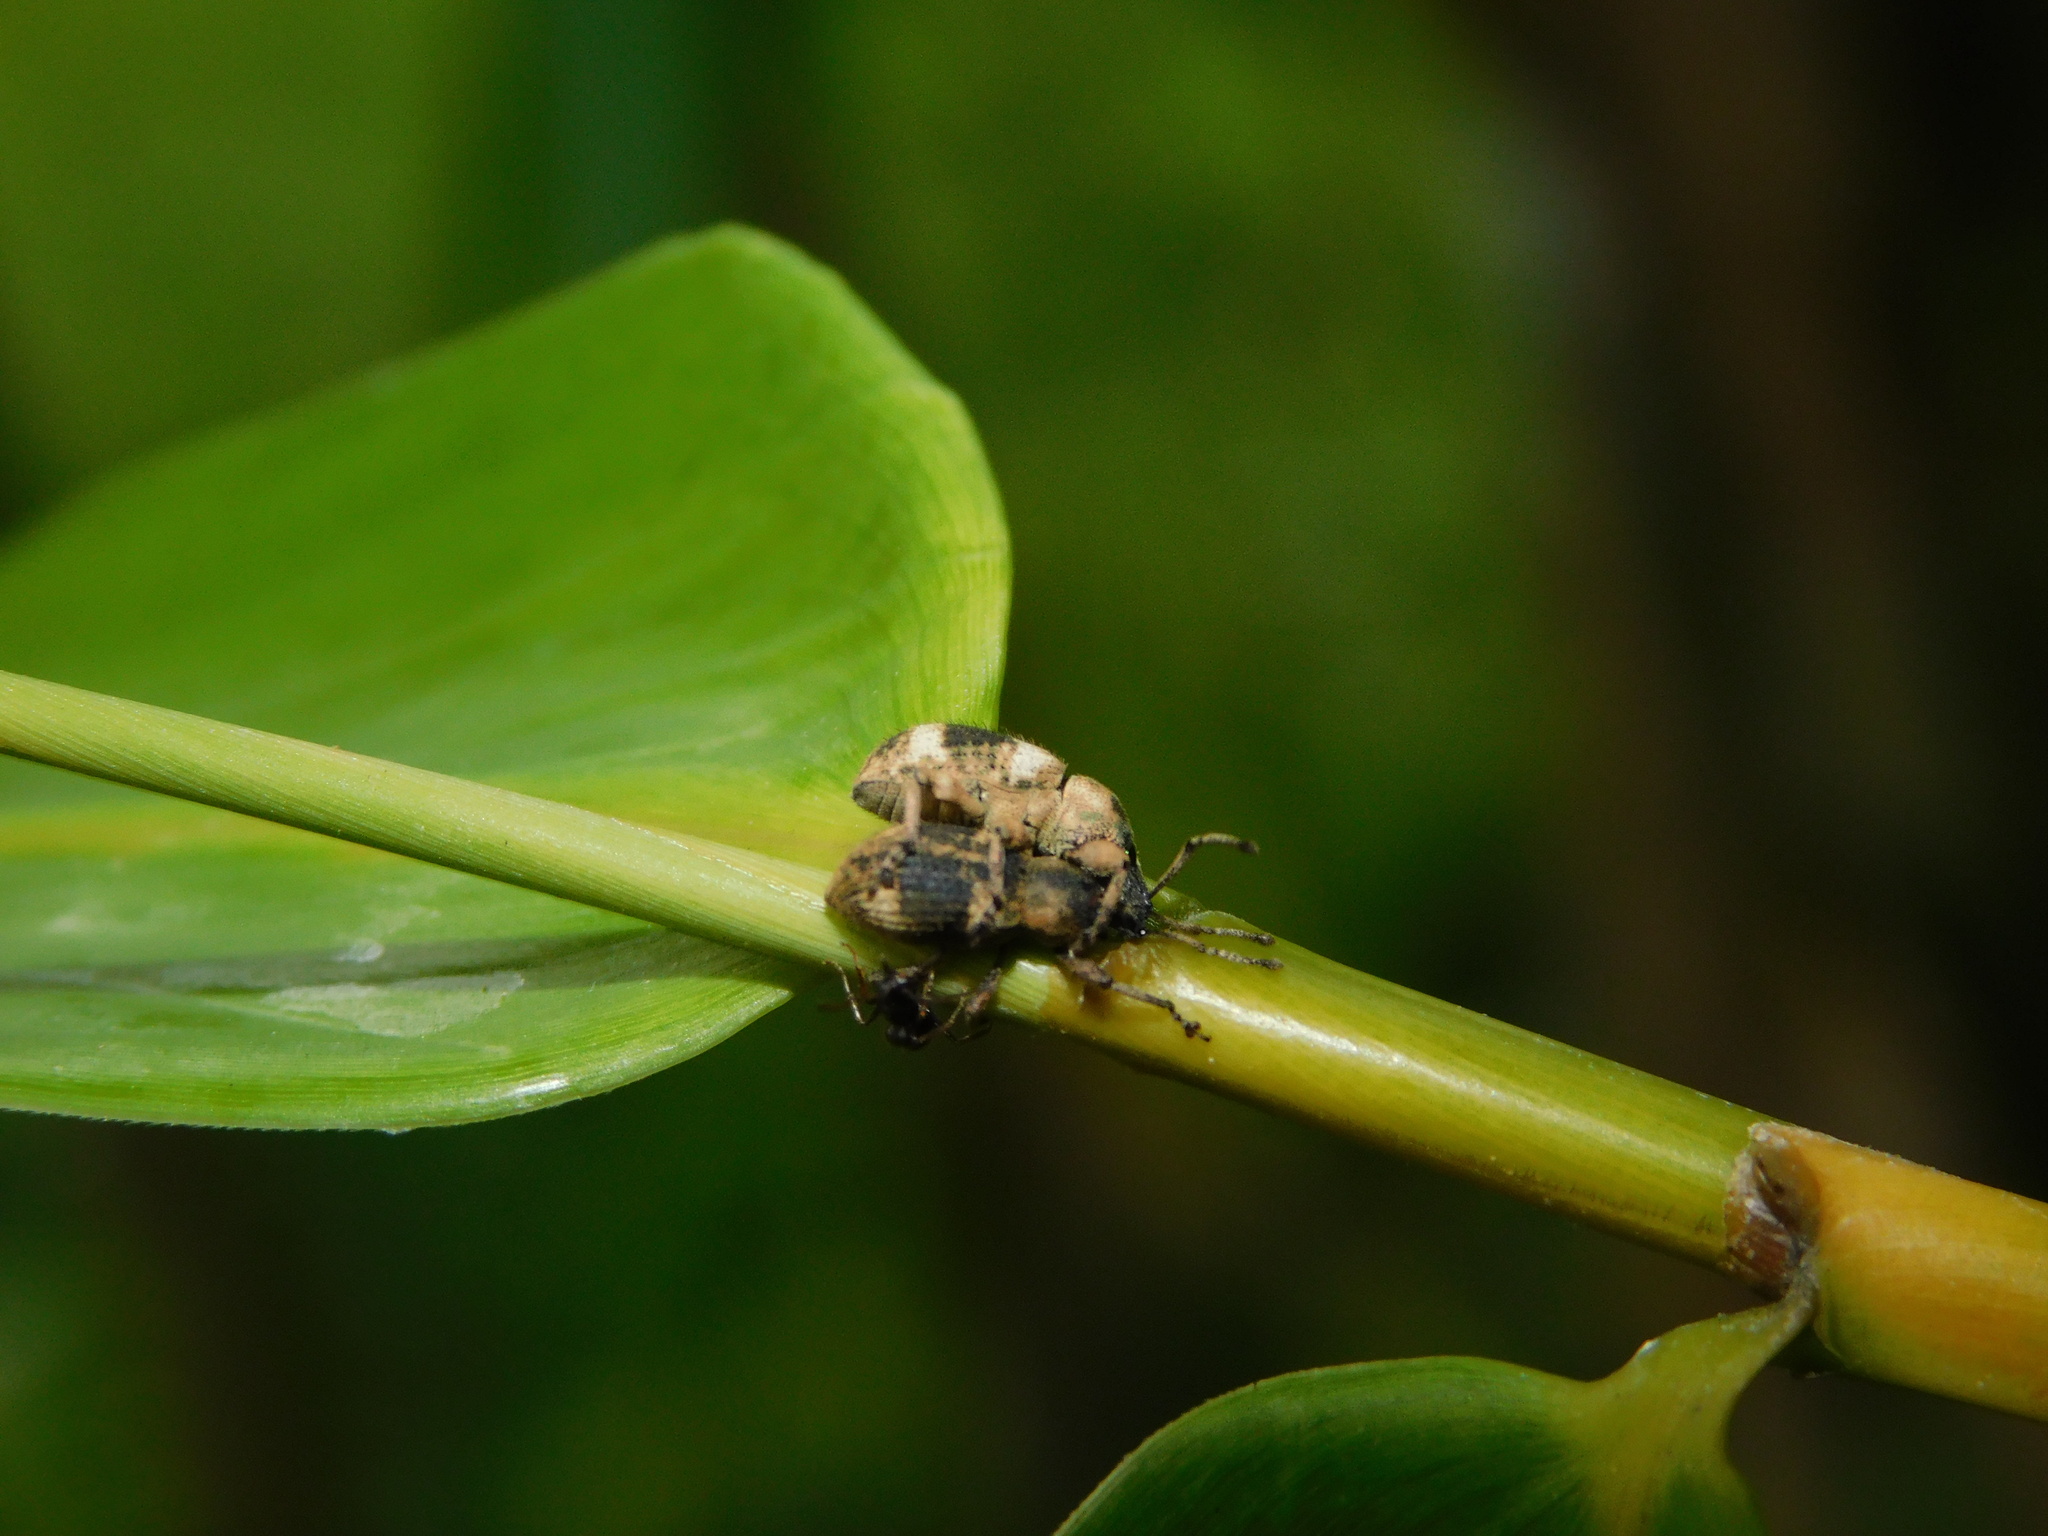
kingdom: Animalia
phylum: Arthropoda
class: Insecta
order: Coleoptera
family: Curculionidae
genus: Phytoscaphus
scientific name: Phytoscaphus triangularis
